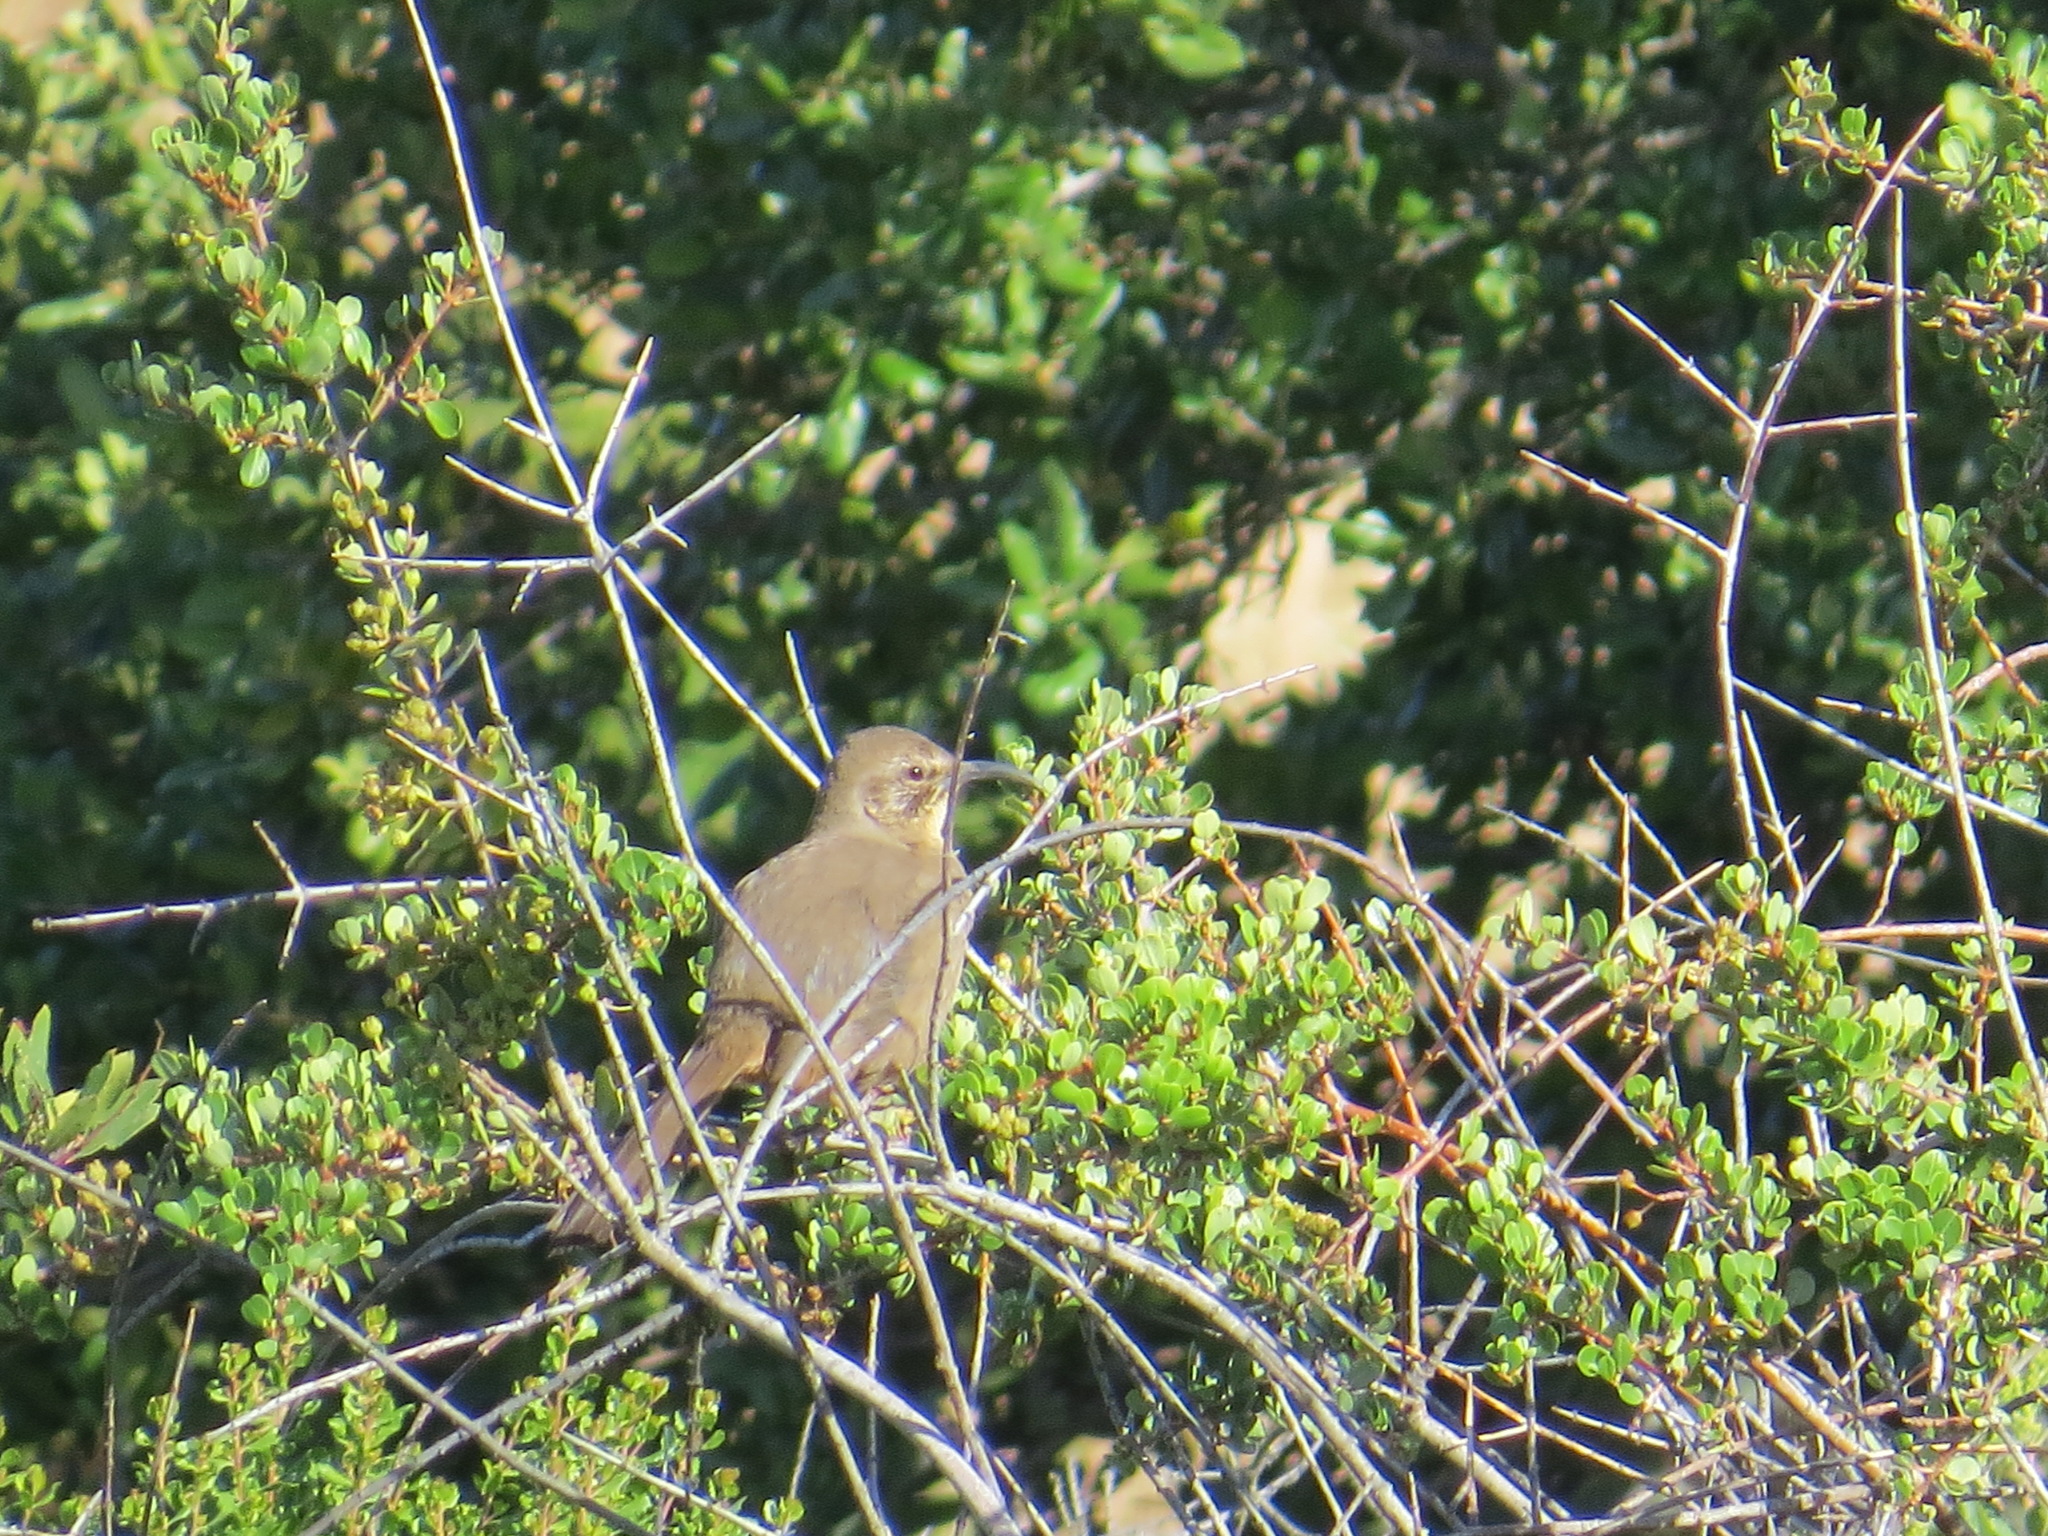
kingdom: Animalia
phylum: Chordata
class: Aves
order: Passeriformes
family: Mimidae
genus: Toxostoma
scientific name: Toxostoma redivivum
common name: California thrasher
